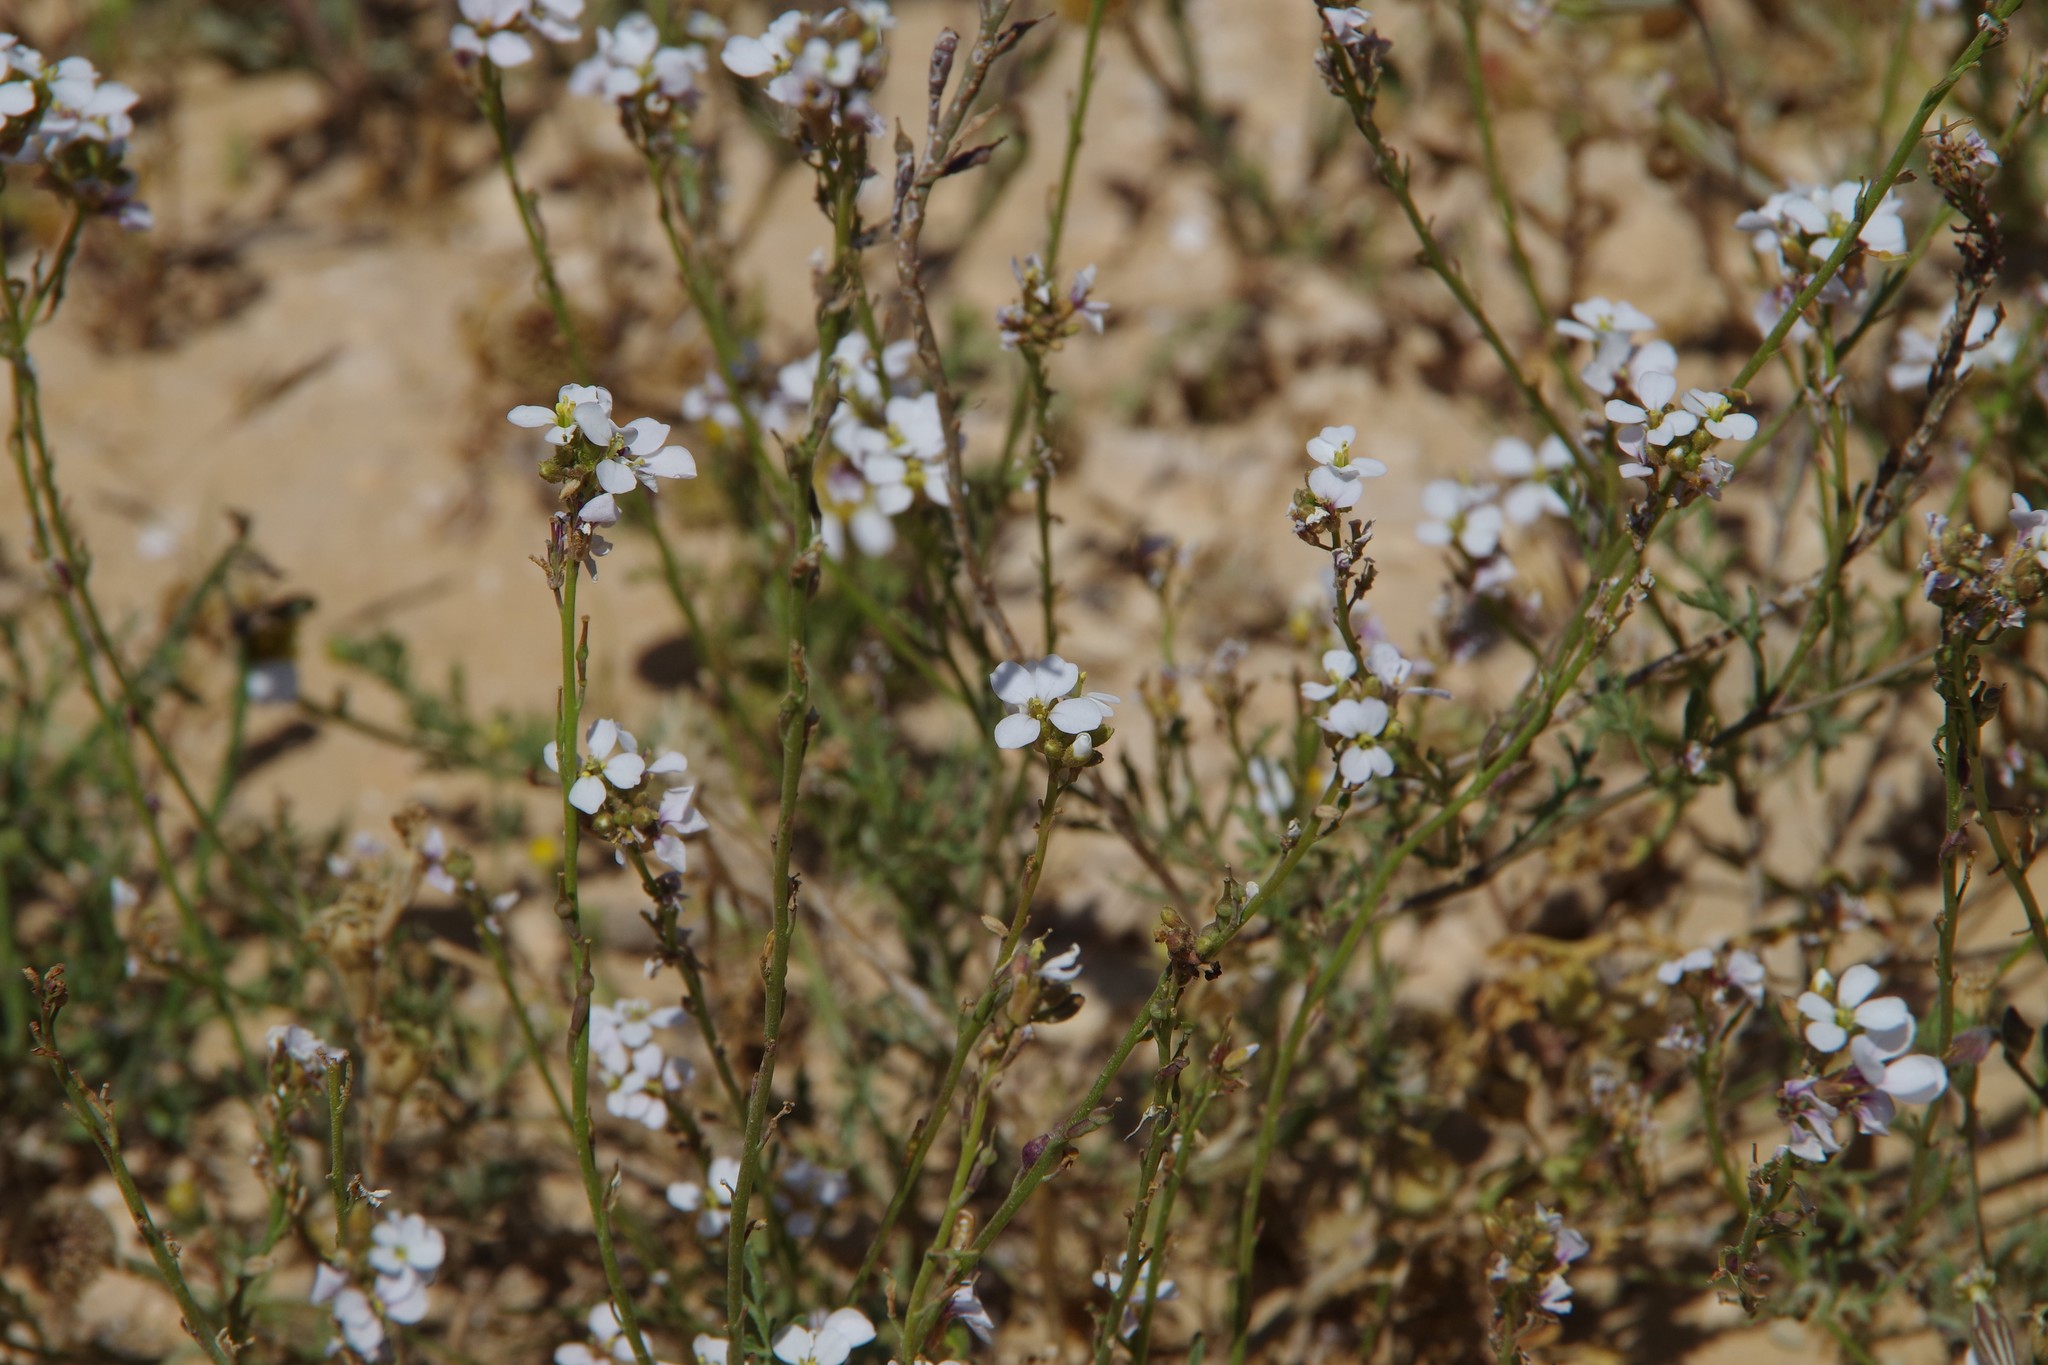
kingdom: Plantae
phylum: Tracheophyta
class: Magnoliopsida
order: Brassicales
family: Brassicaceae
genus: Erucaria
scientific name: Erucaria rostrata
